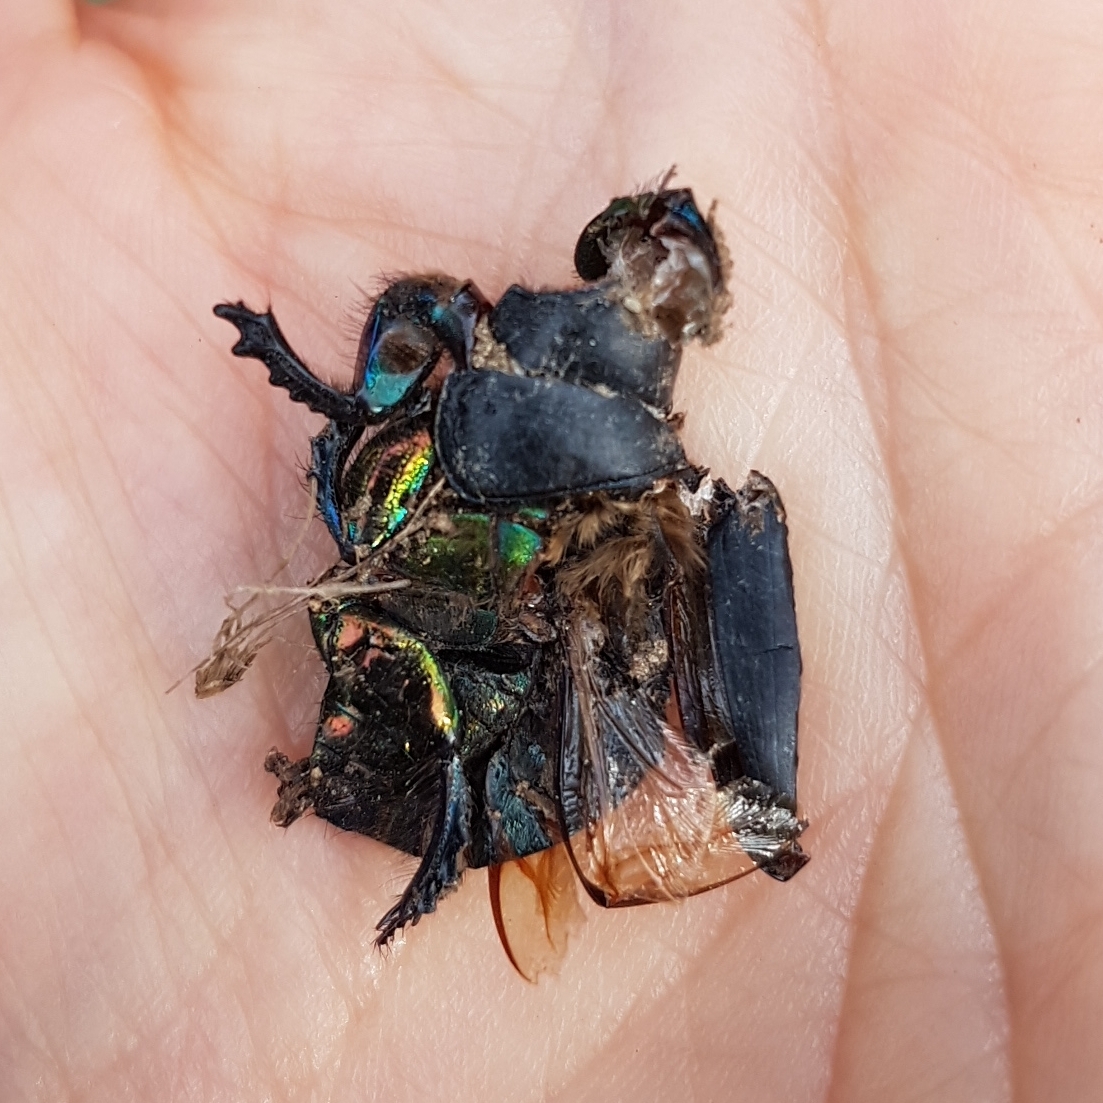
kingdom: Animalia
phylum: Arthropoda
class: Insecta
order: Coleoptera
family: Geotrupidae
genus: Sericotrupes
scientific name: Sericotrupes niger
